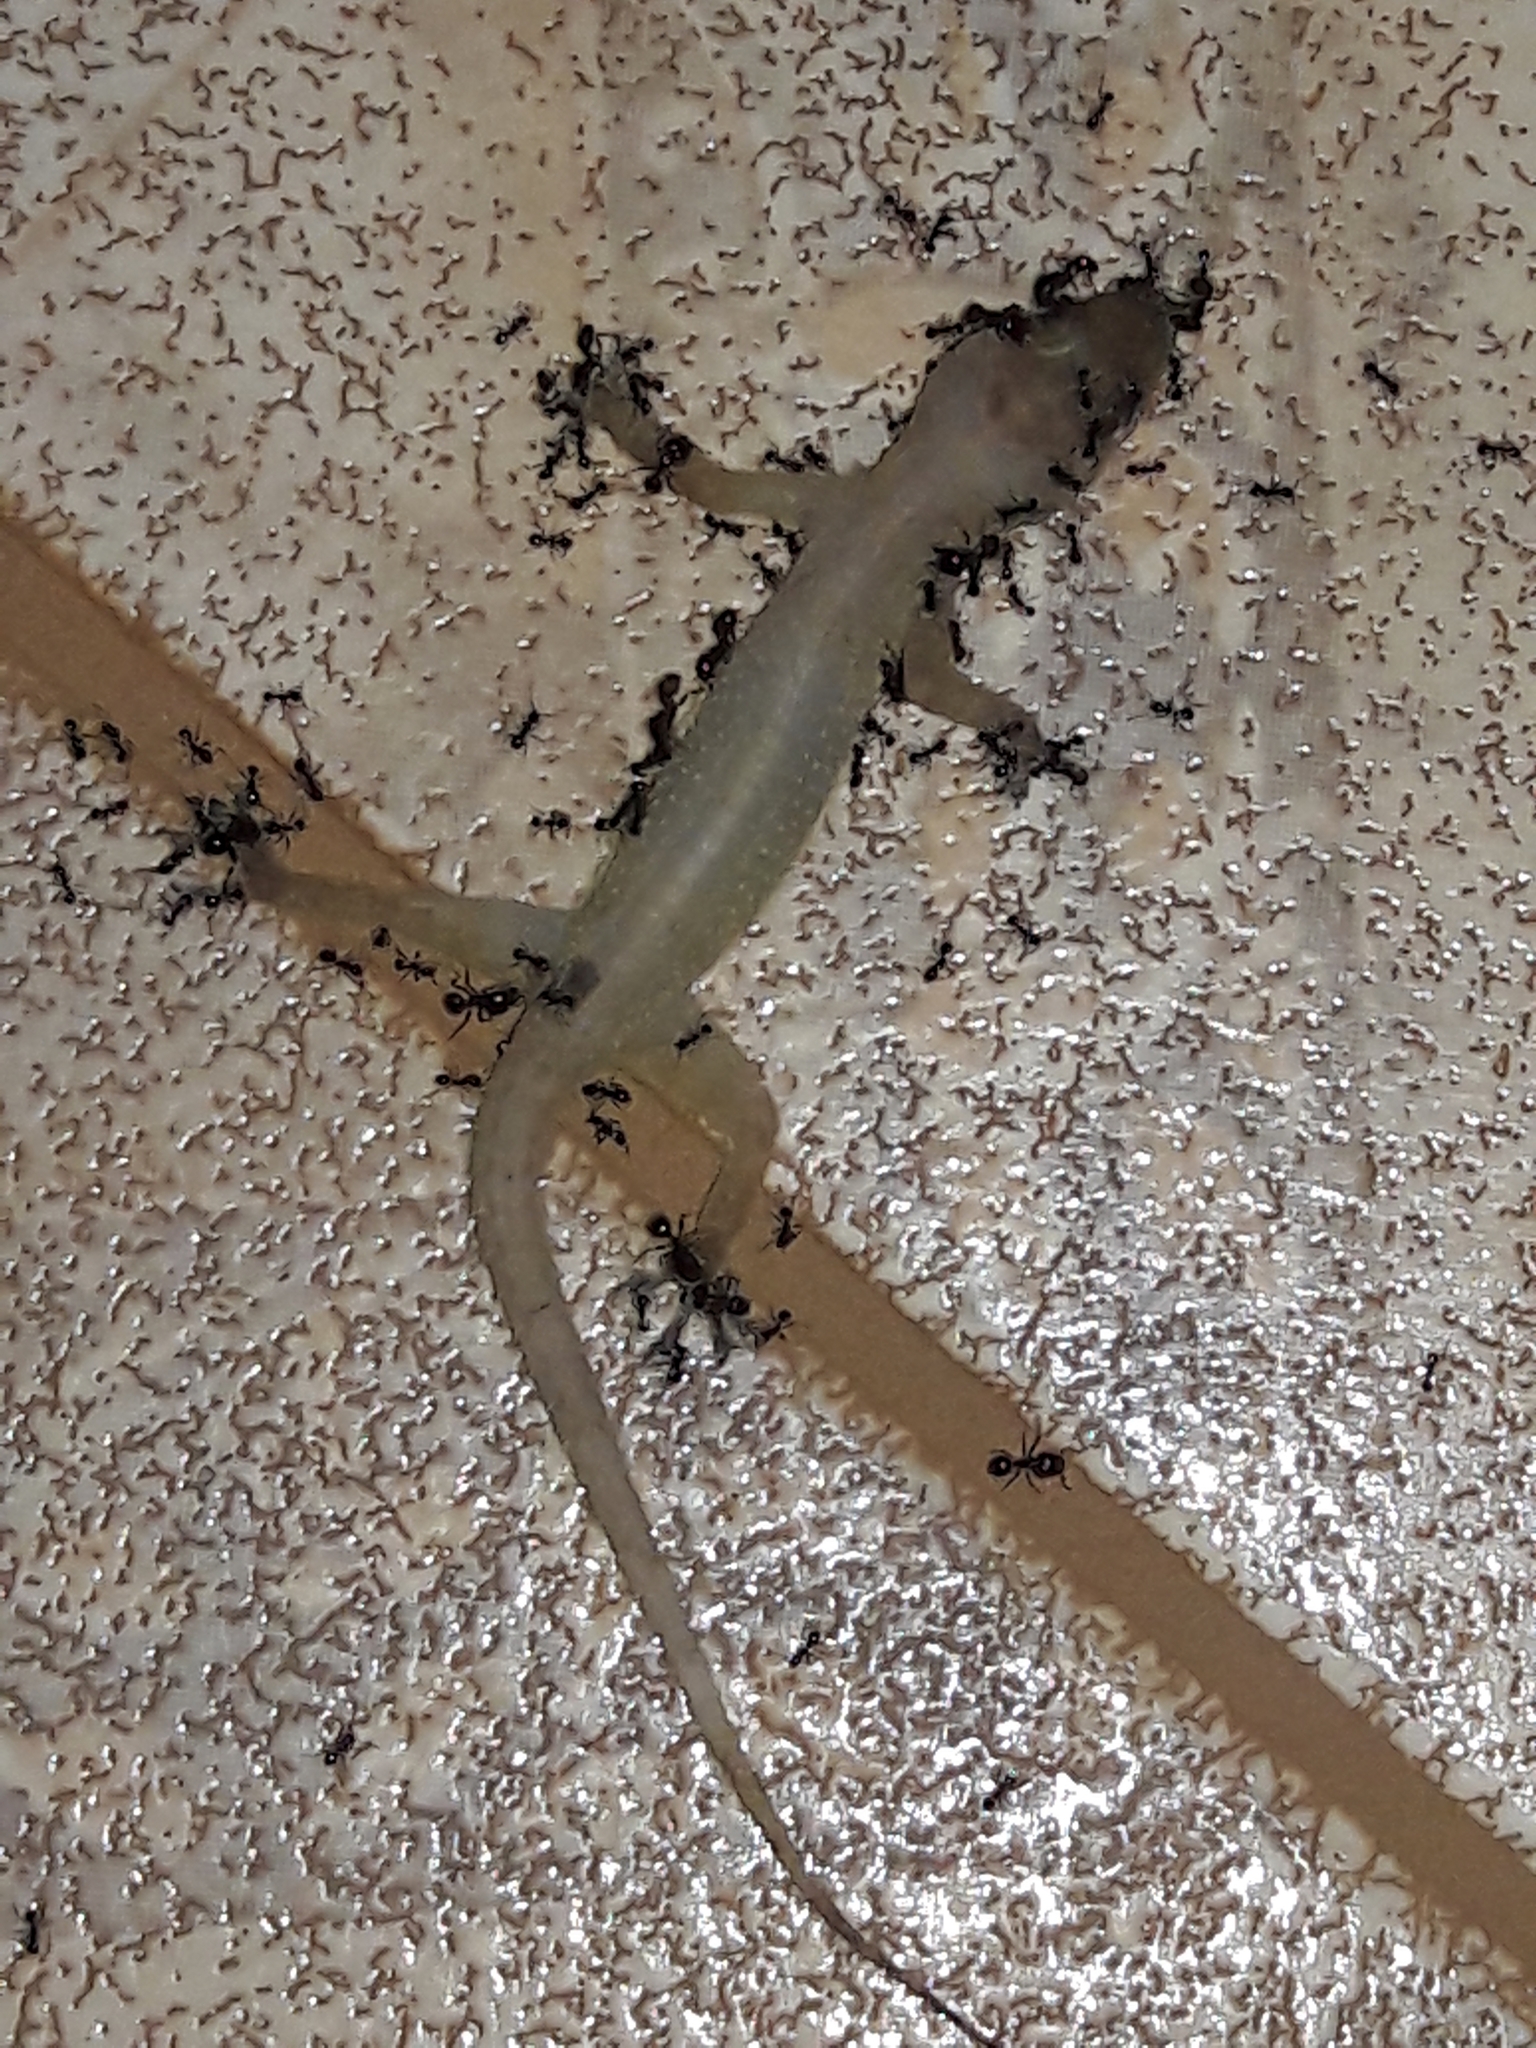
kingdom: Animalia
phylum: Chordata
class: Squamata
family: Gekkonidae
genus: Hemidactylus
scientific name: Hemidactylus mabouia
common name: House gecko
